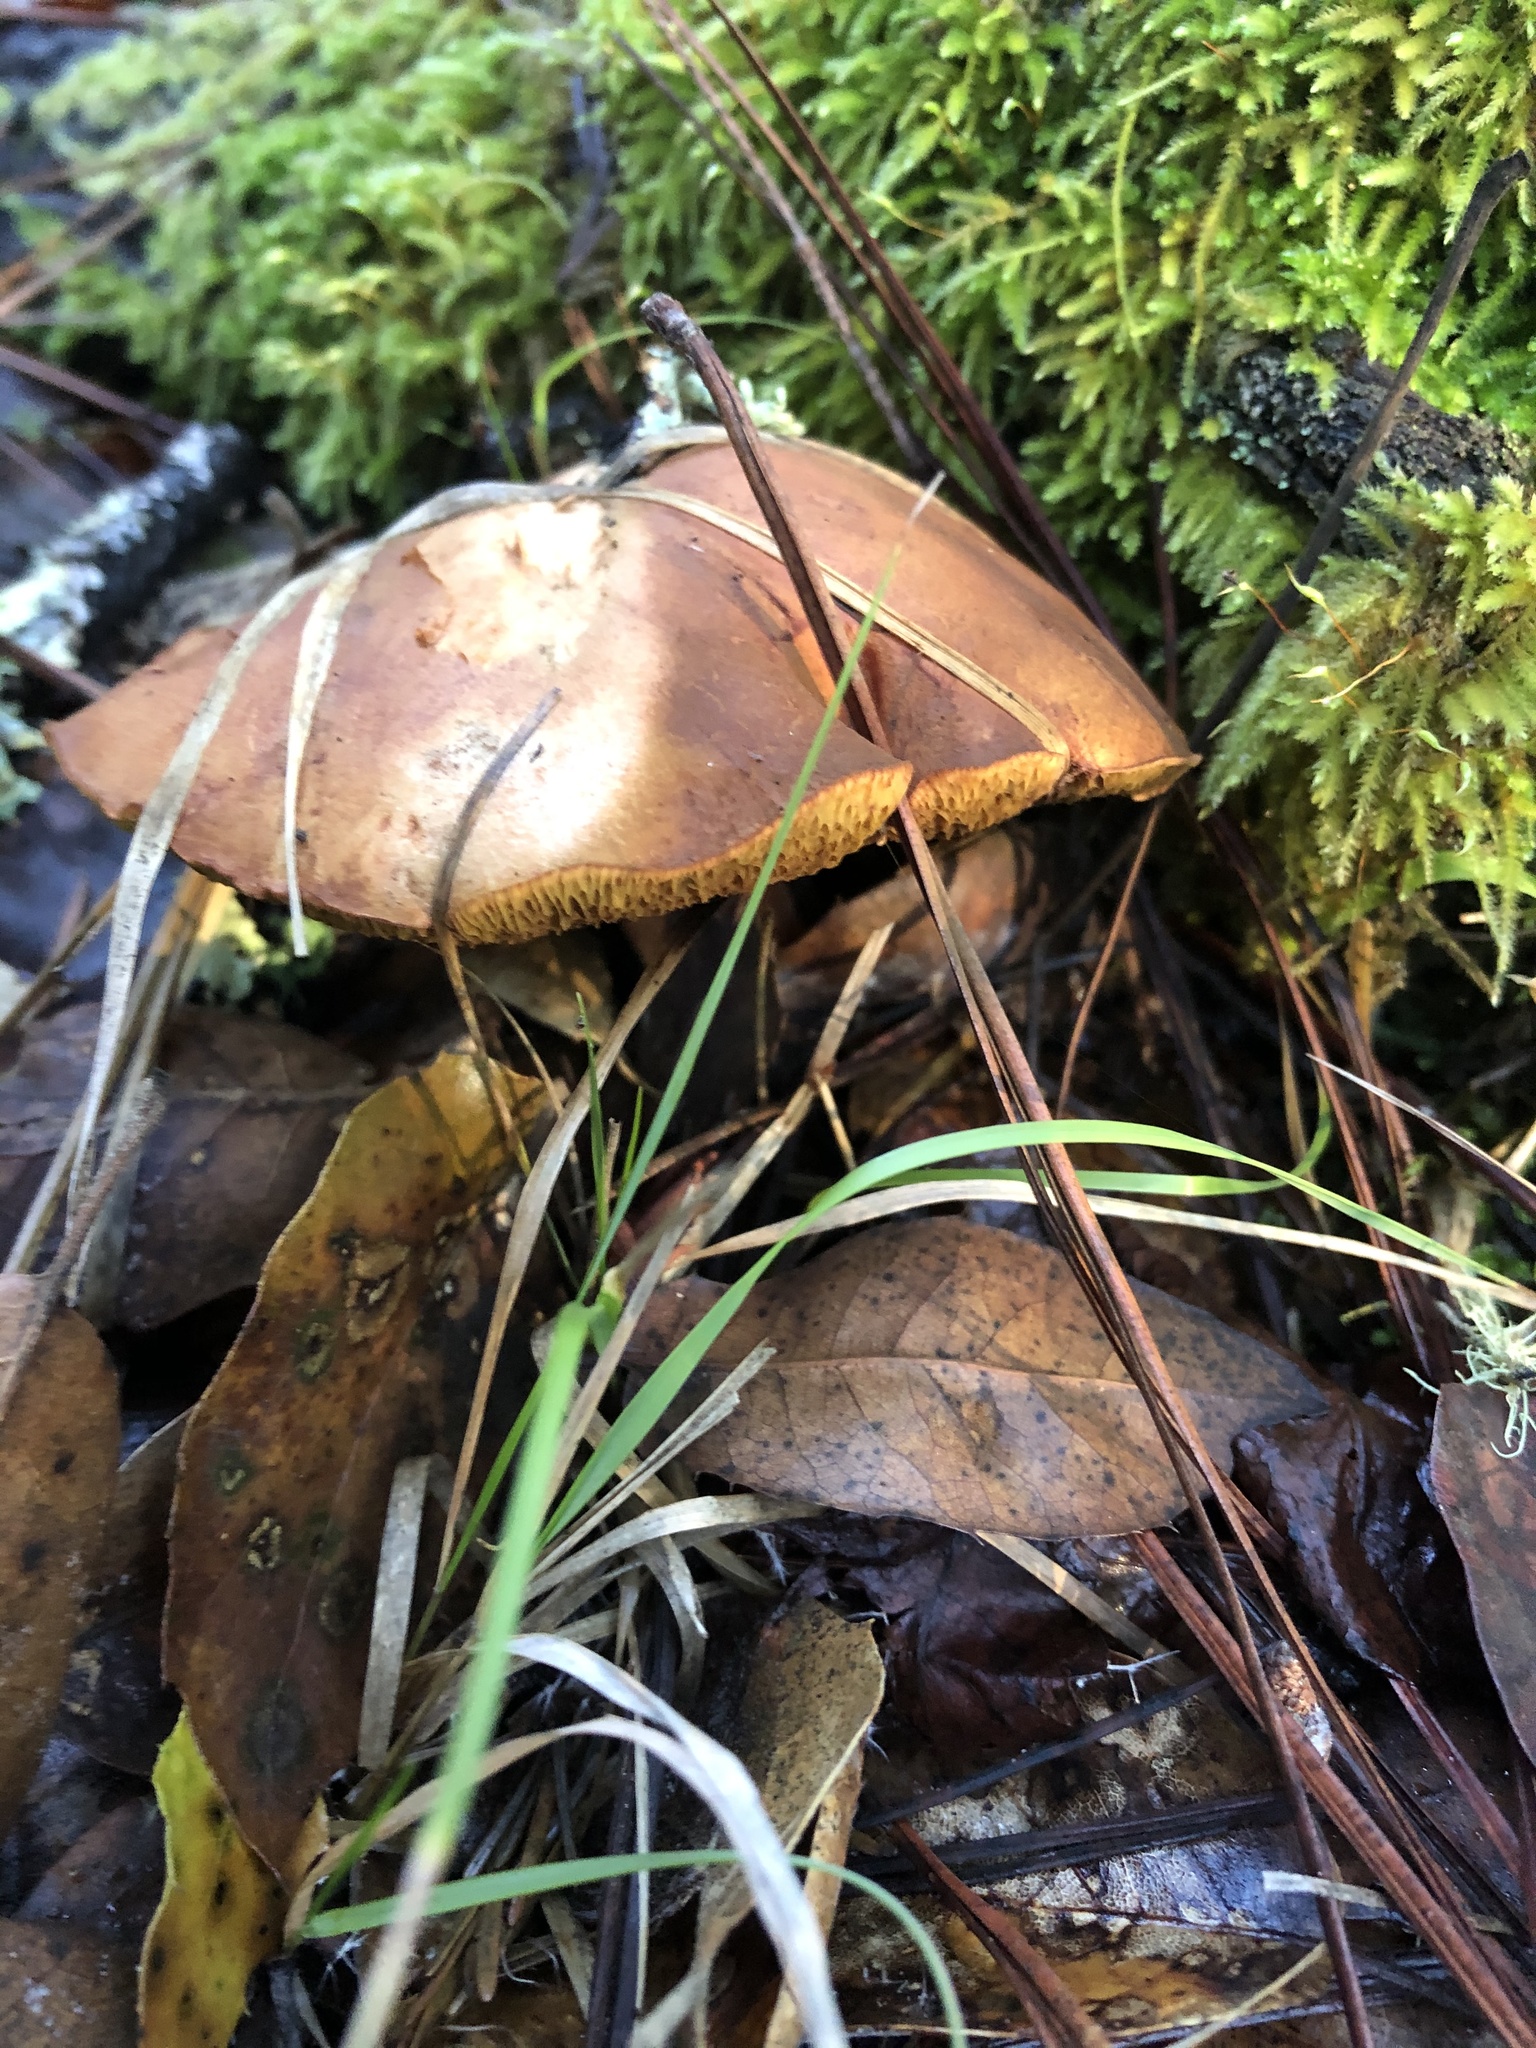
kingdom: Fungi
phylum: Basidiomycota
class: Agaricomycetes
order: Boletales
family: Boletaceae
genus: Chalciporus
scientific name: Chalciporus piperatus
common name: Peppery bolete
